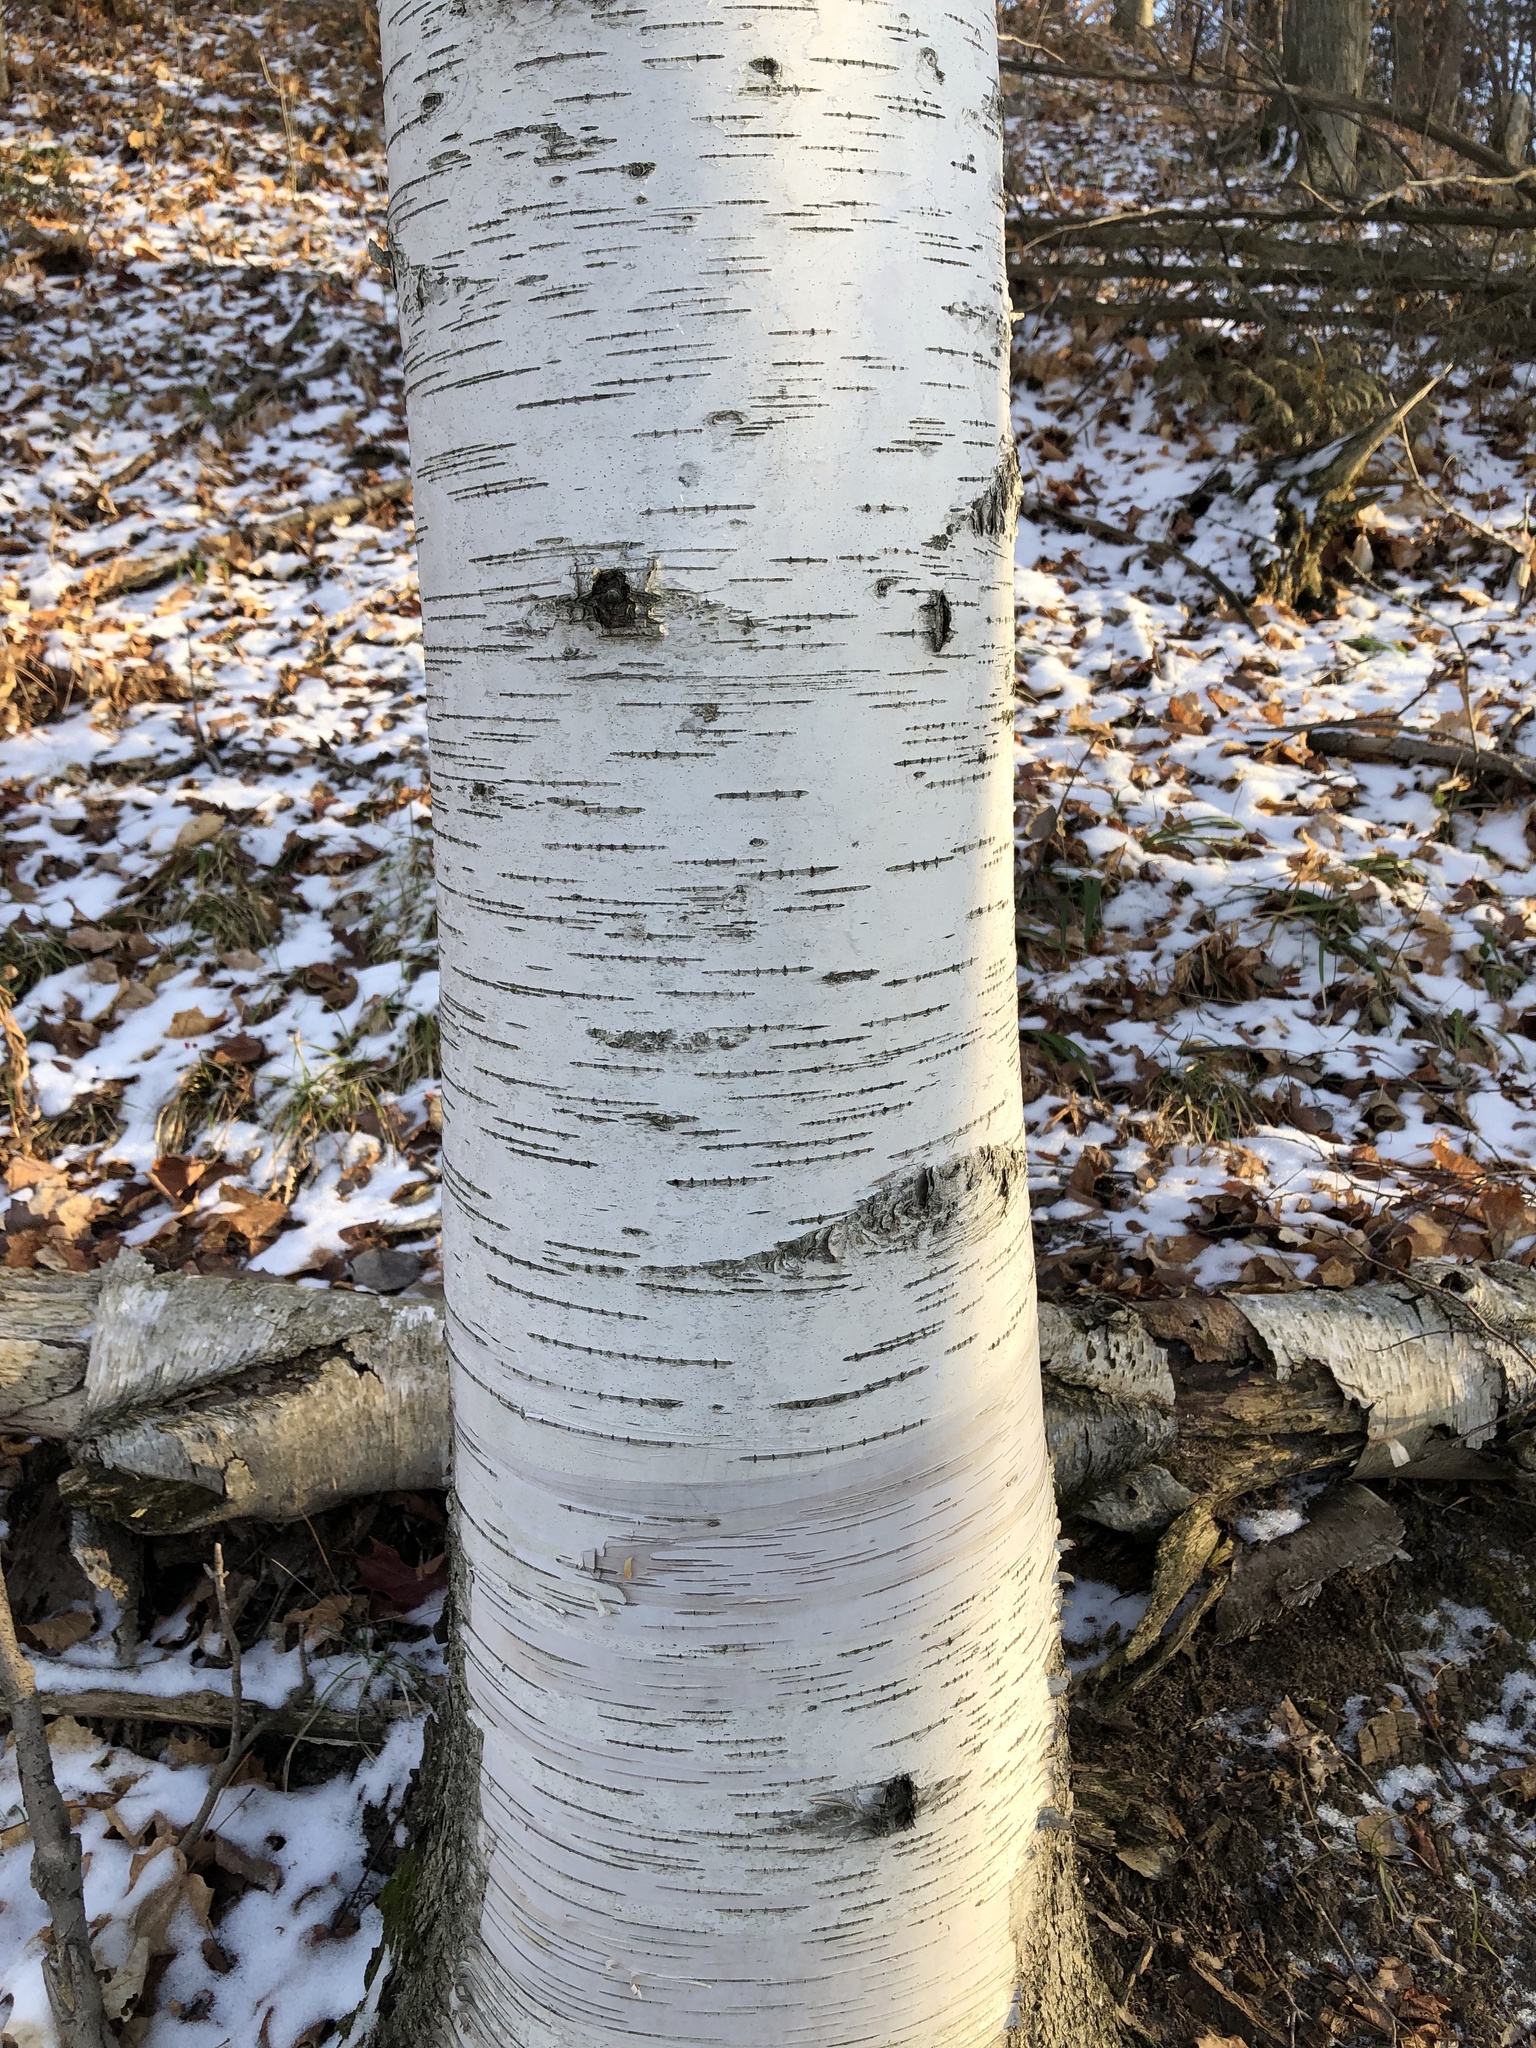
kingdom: Plantae
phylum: Tracheophyta
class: Magnoliopsida
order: Fagales
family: Betulaceae
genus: Betula
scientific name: Betula papyrifera
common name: Paper birch
